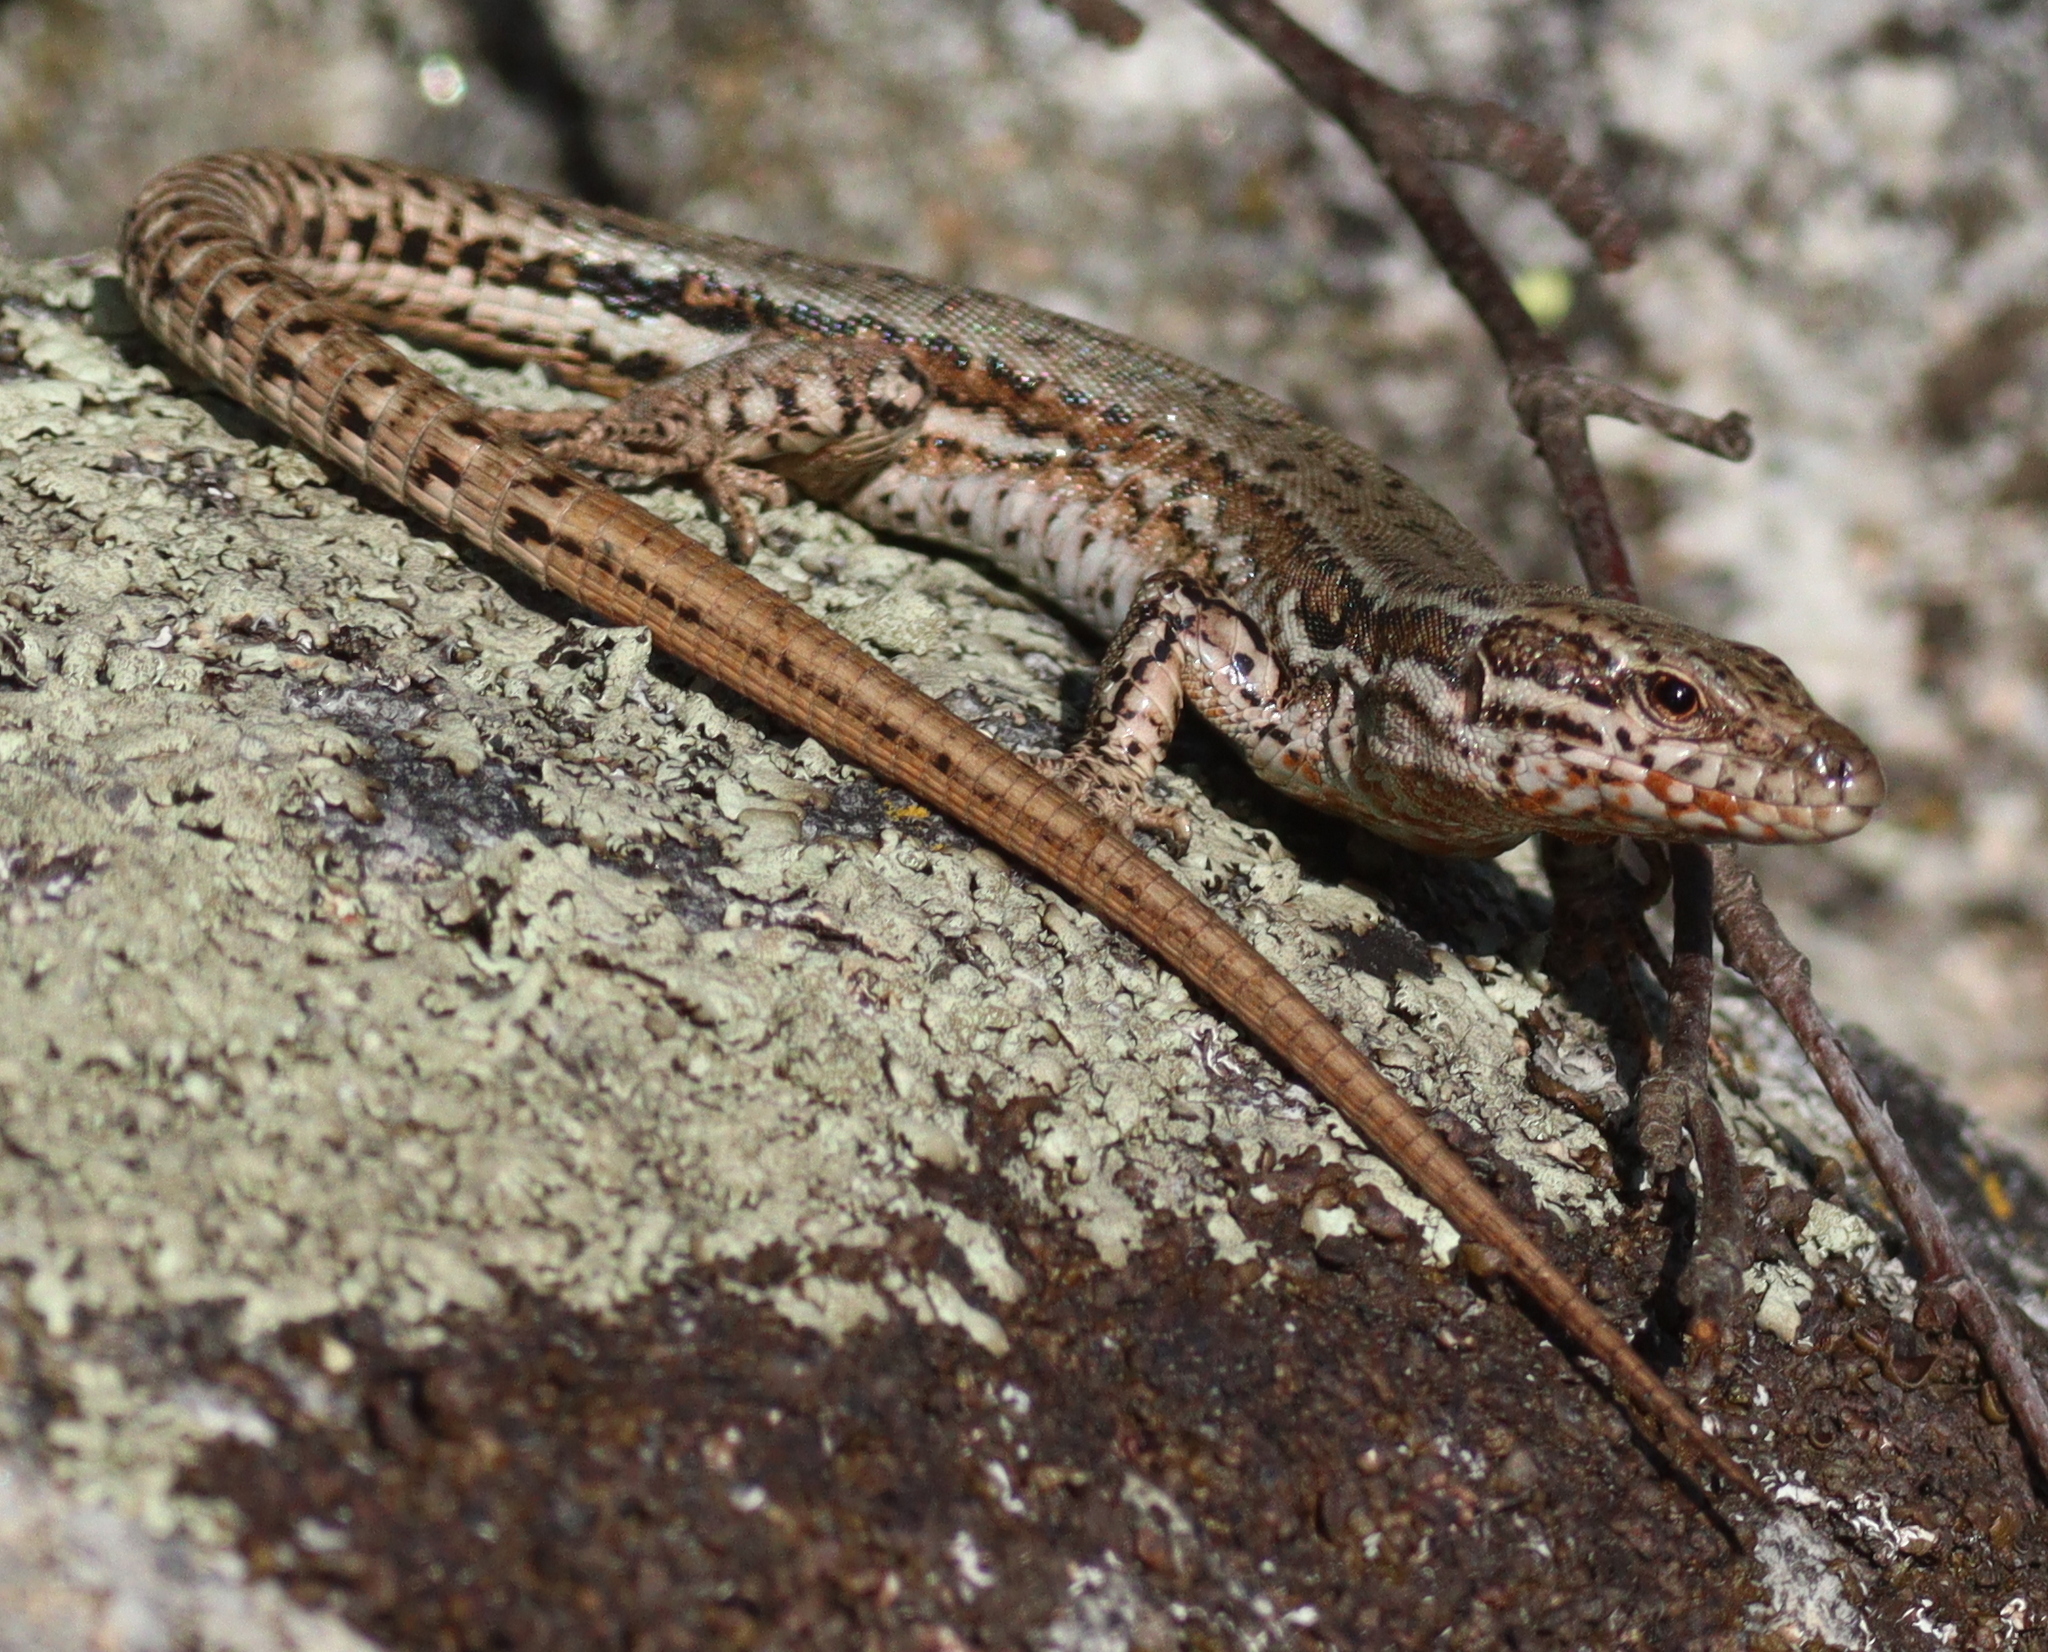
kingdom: Animalia
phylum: Chordata
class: Squamata
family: Lacertidae
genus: Podarcis
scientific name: Podarcis muralis
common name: Common wall lizard
